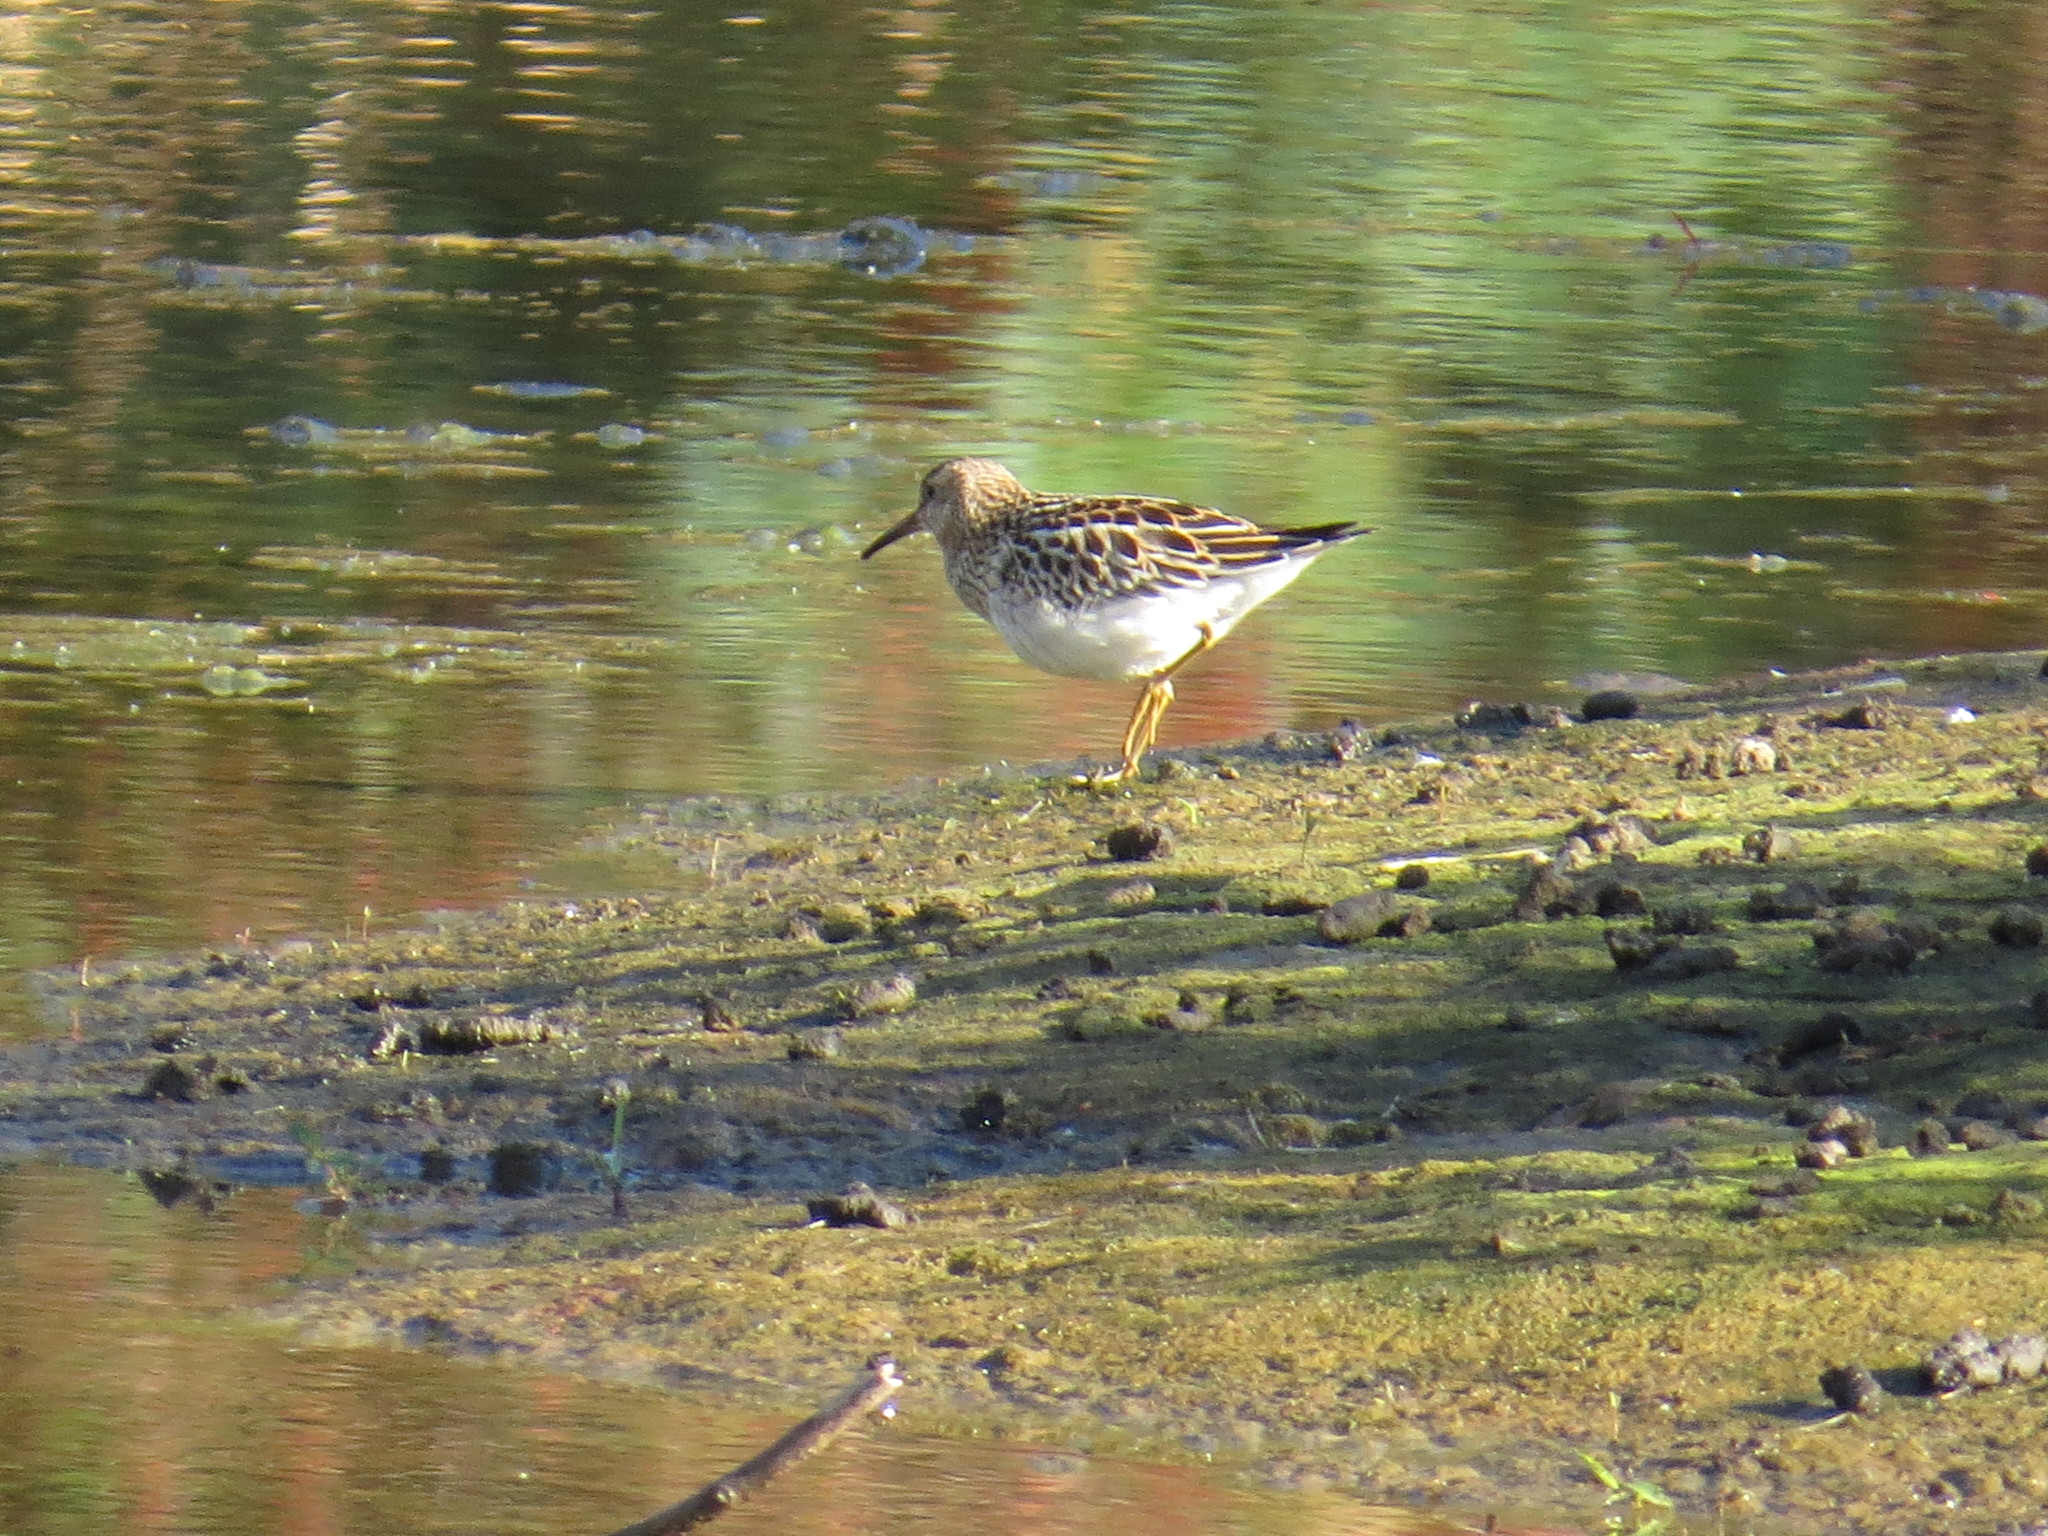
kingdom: Animalia
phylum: Chordata
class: Aves
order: Charadriiformes
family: Scolopacidae
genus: Calidris
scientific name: Calidris melanotos
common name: Pectoral sandpiper
